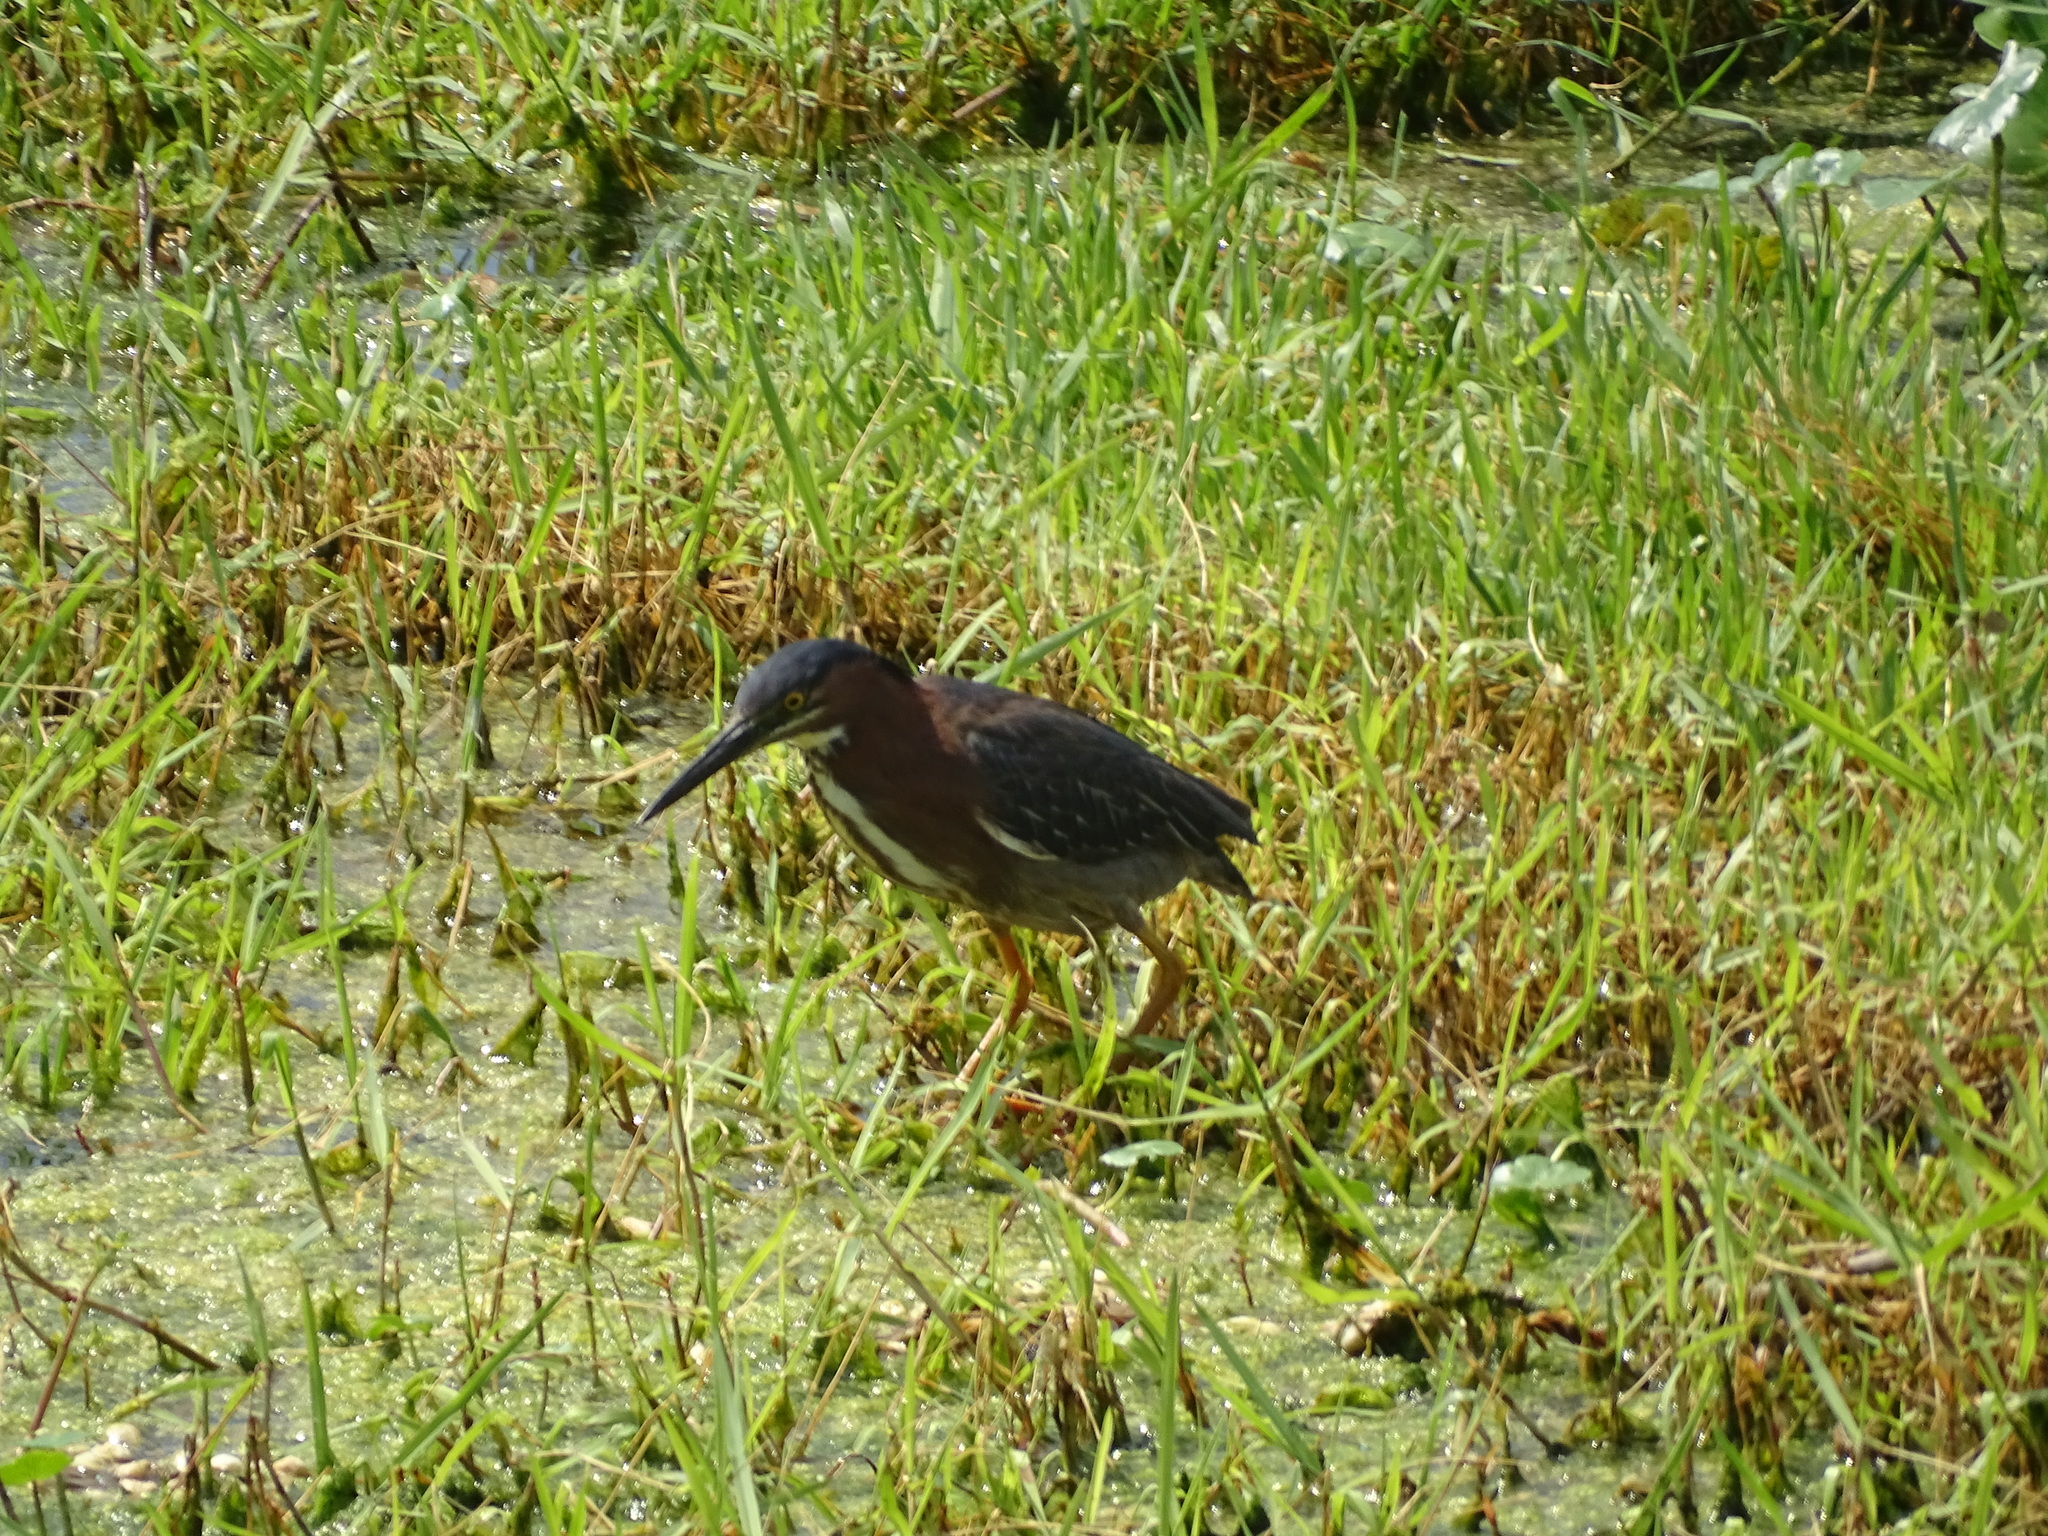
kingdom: Animalia
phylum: Chordata
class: Aves
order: Pelecaniformes
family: Ardeidae
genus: Butorides
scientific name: Butorides virescens
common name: Green heron
